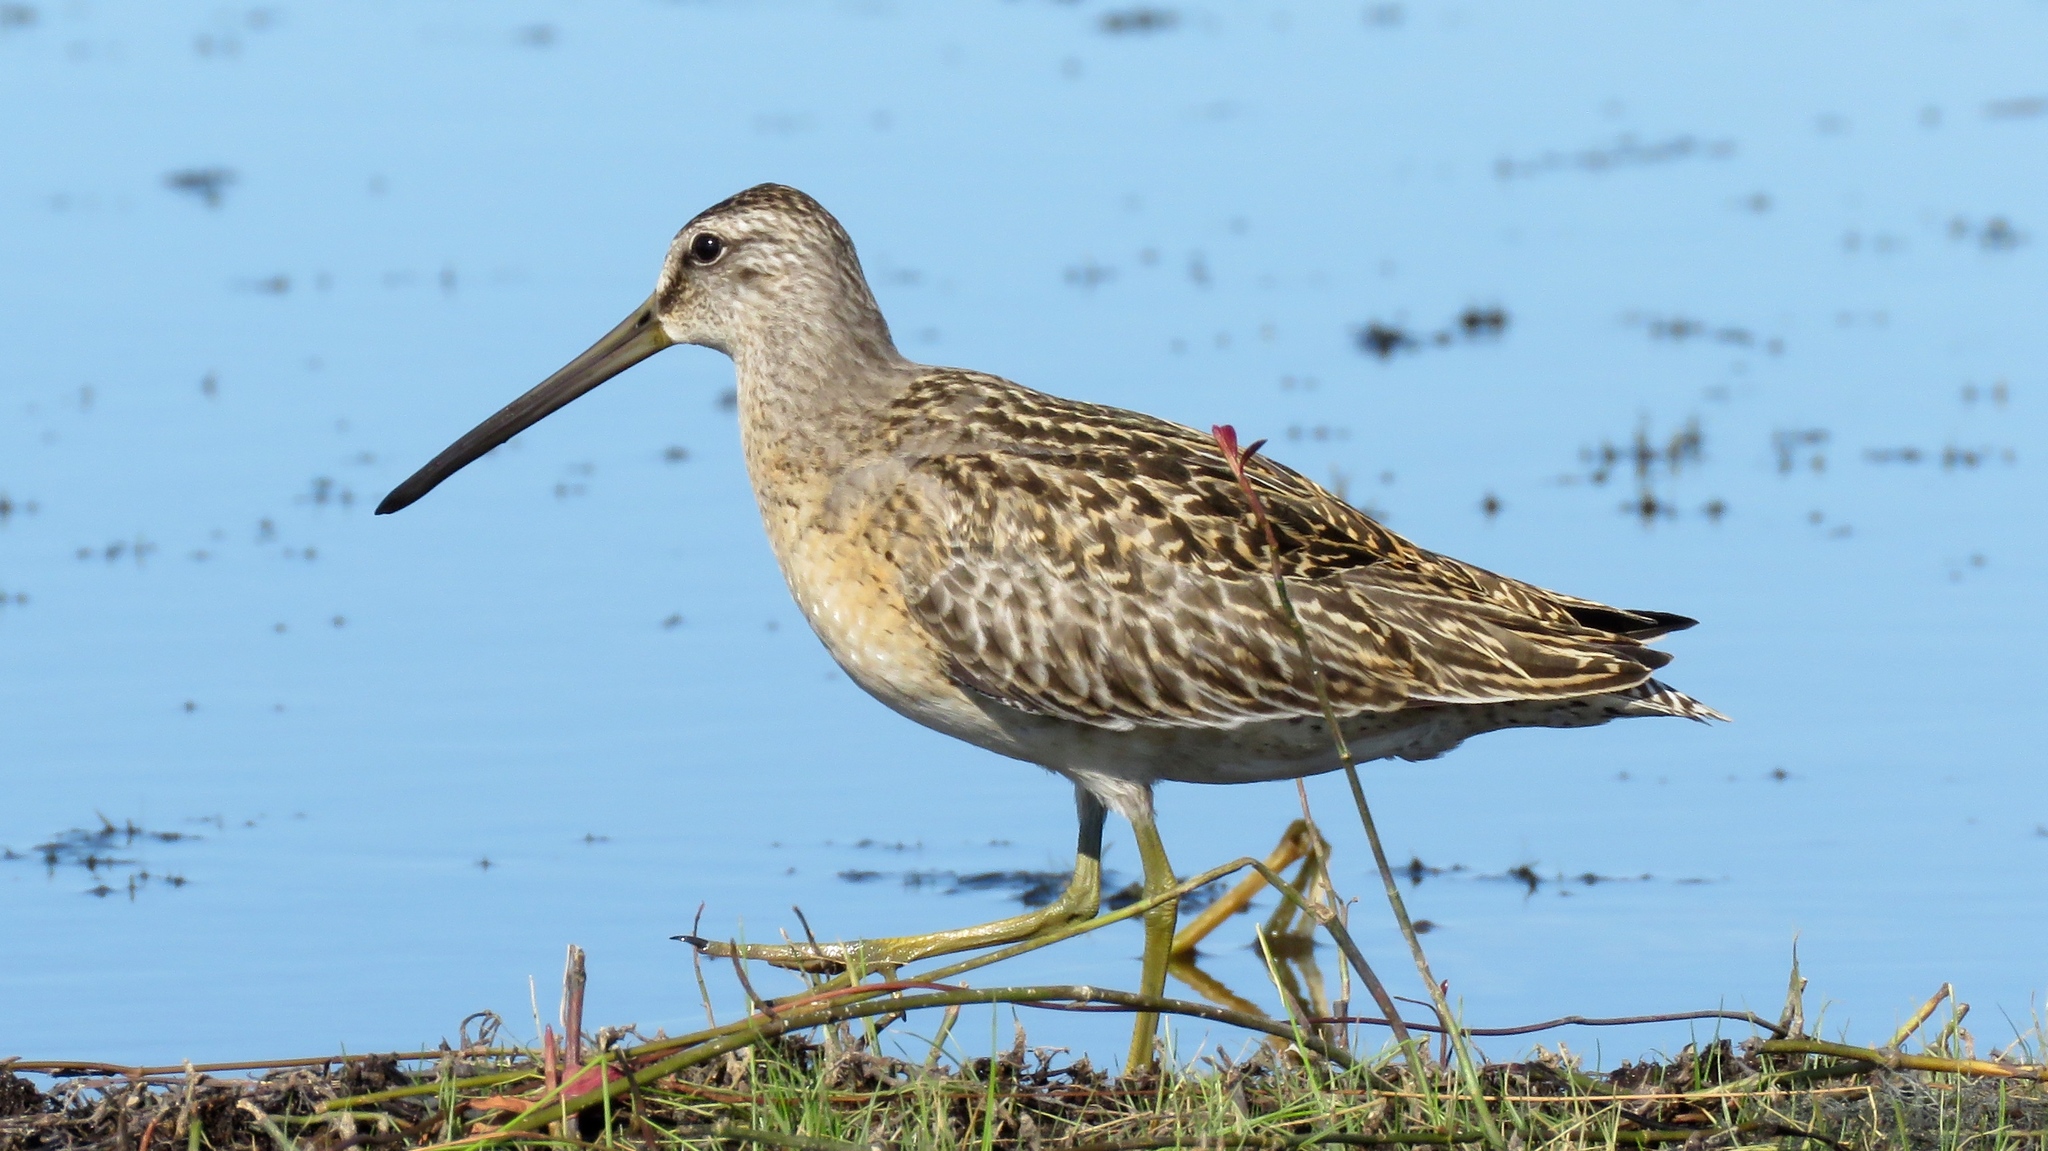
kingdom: Animalia
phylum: Chordata
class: Aves
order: Charadriiformes
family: Scolopacidae
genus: Limnodromus
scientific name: Limnodromus griseus
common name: Short-billed dowitcher
